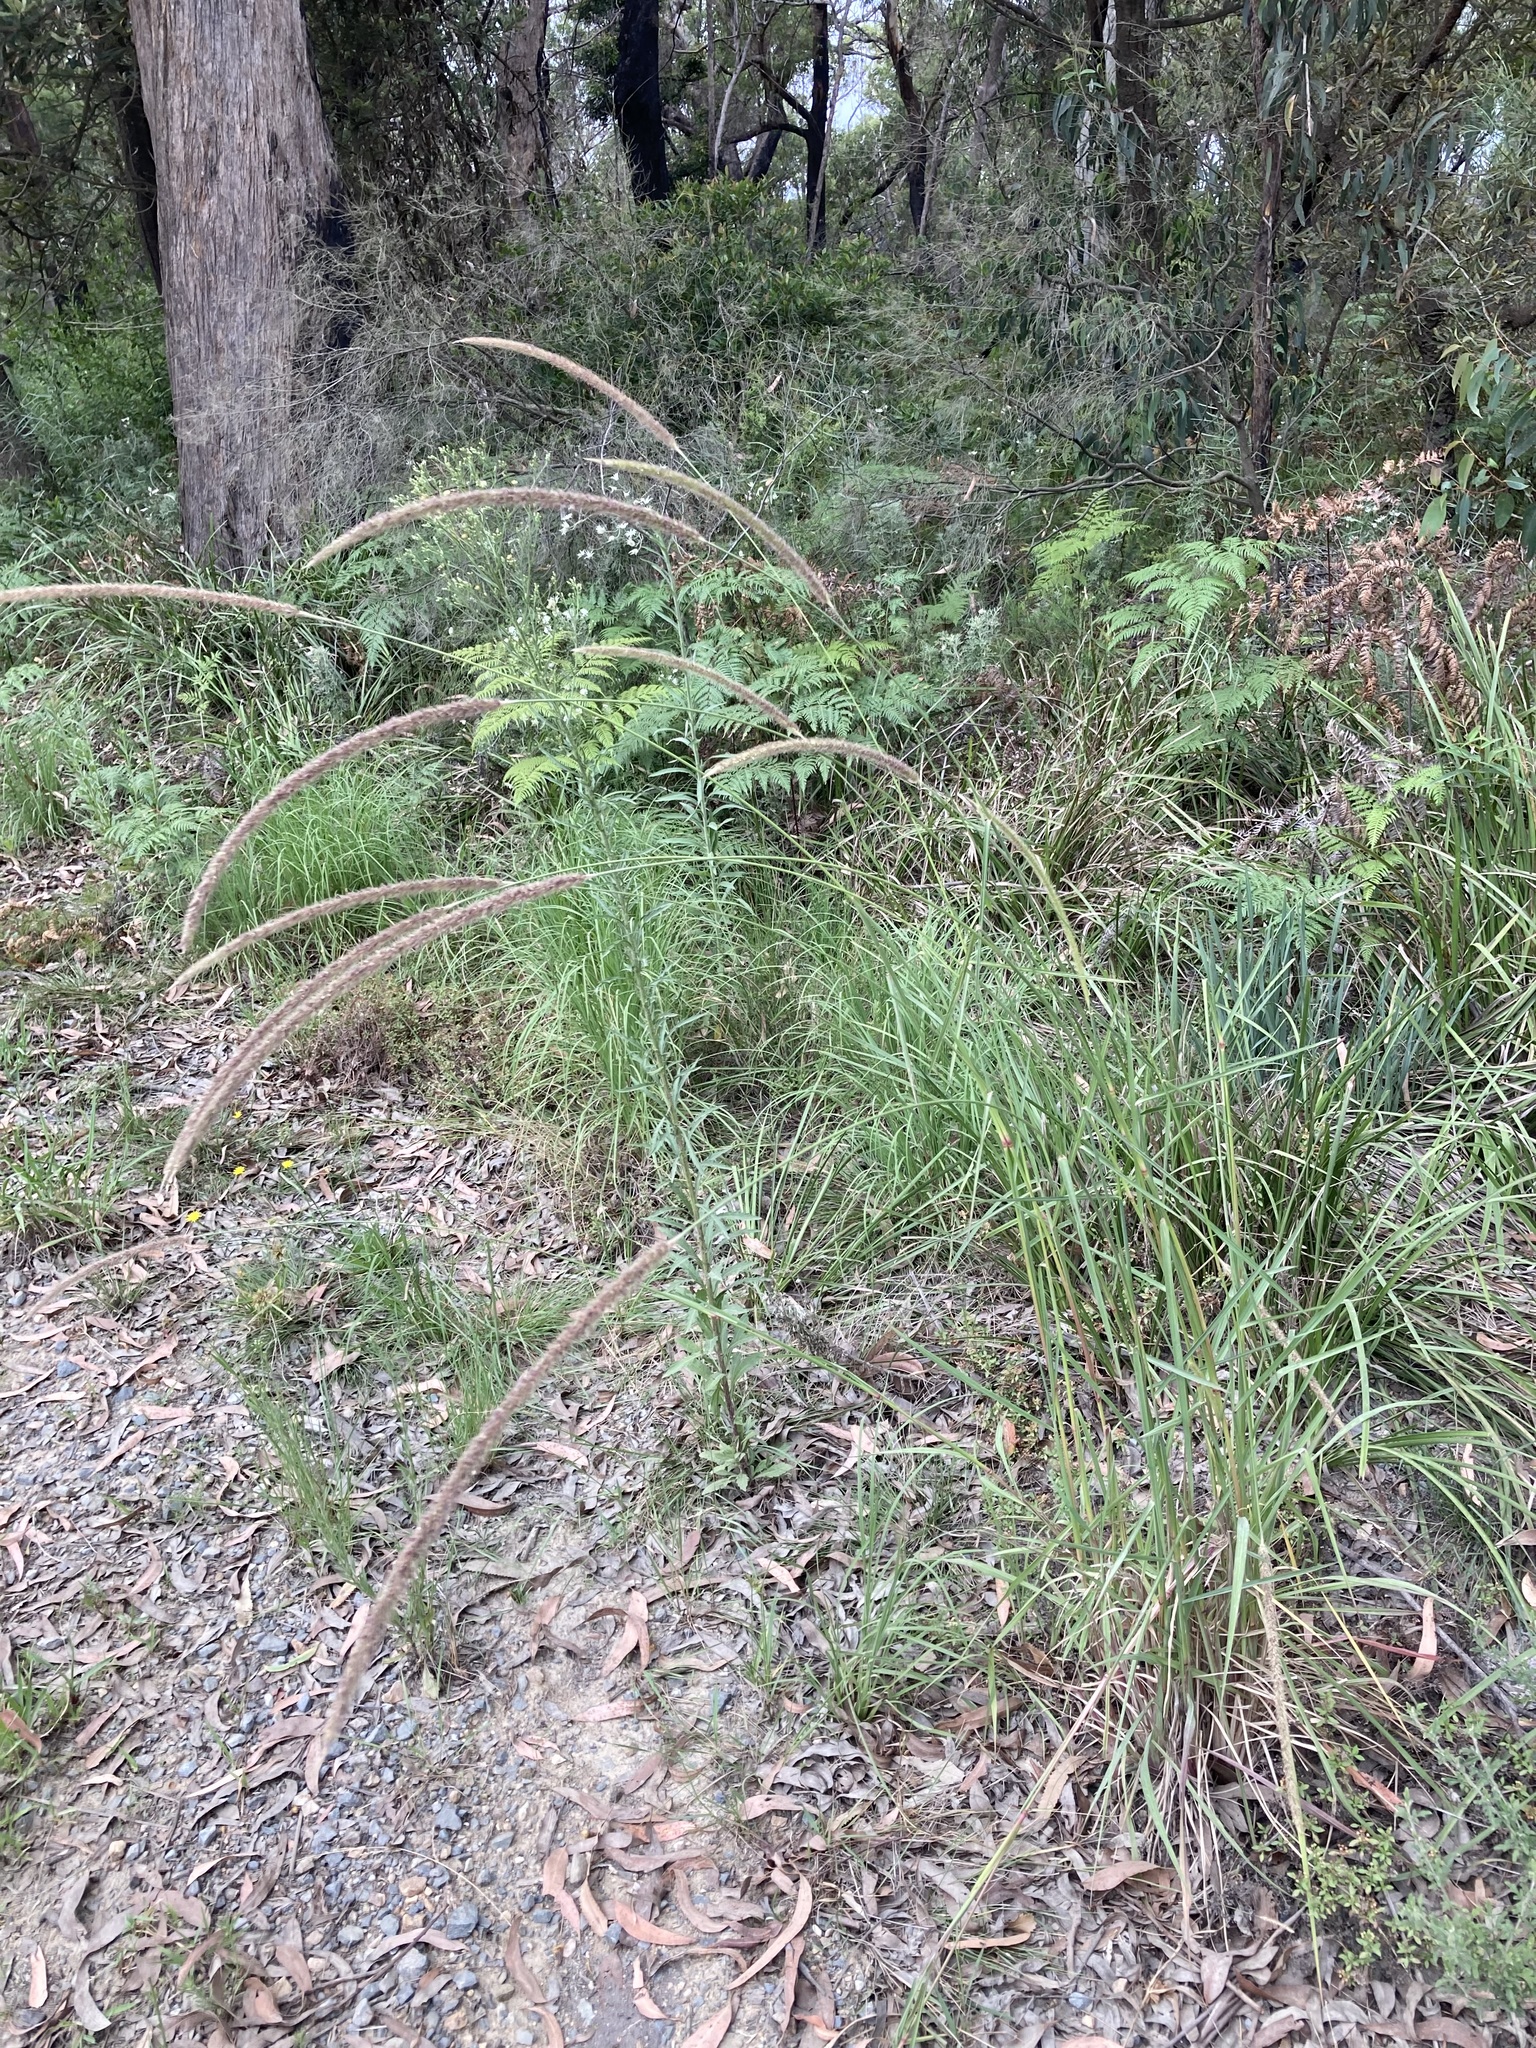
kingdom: Plantae
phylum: Tracheophyta
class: Liliopsida
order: Poales
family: Poaceae
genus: Setaria
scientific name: Setaria sphacelata
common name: African bristlegrass
